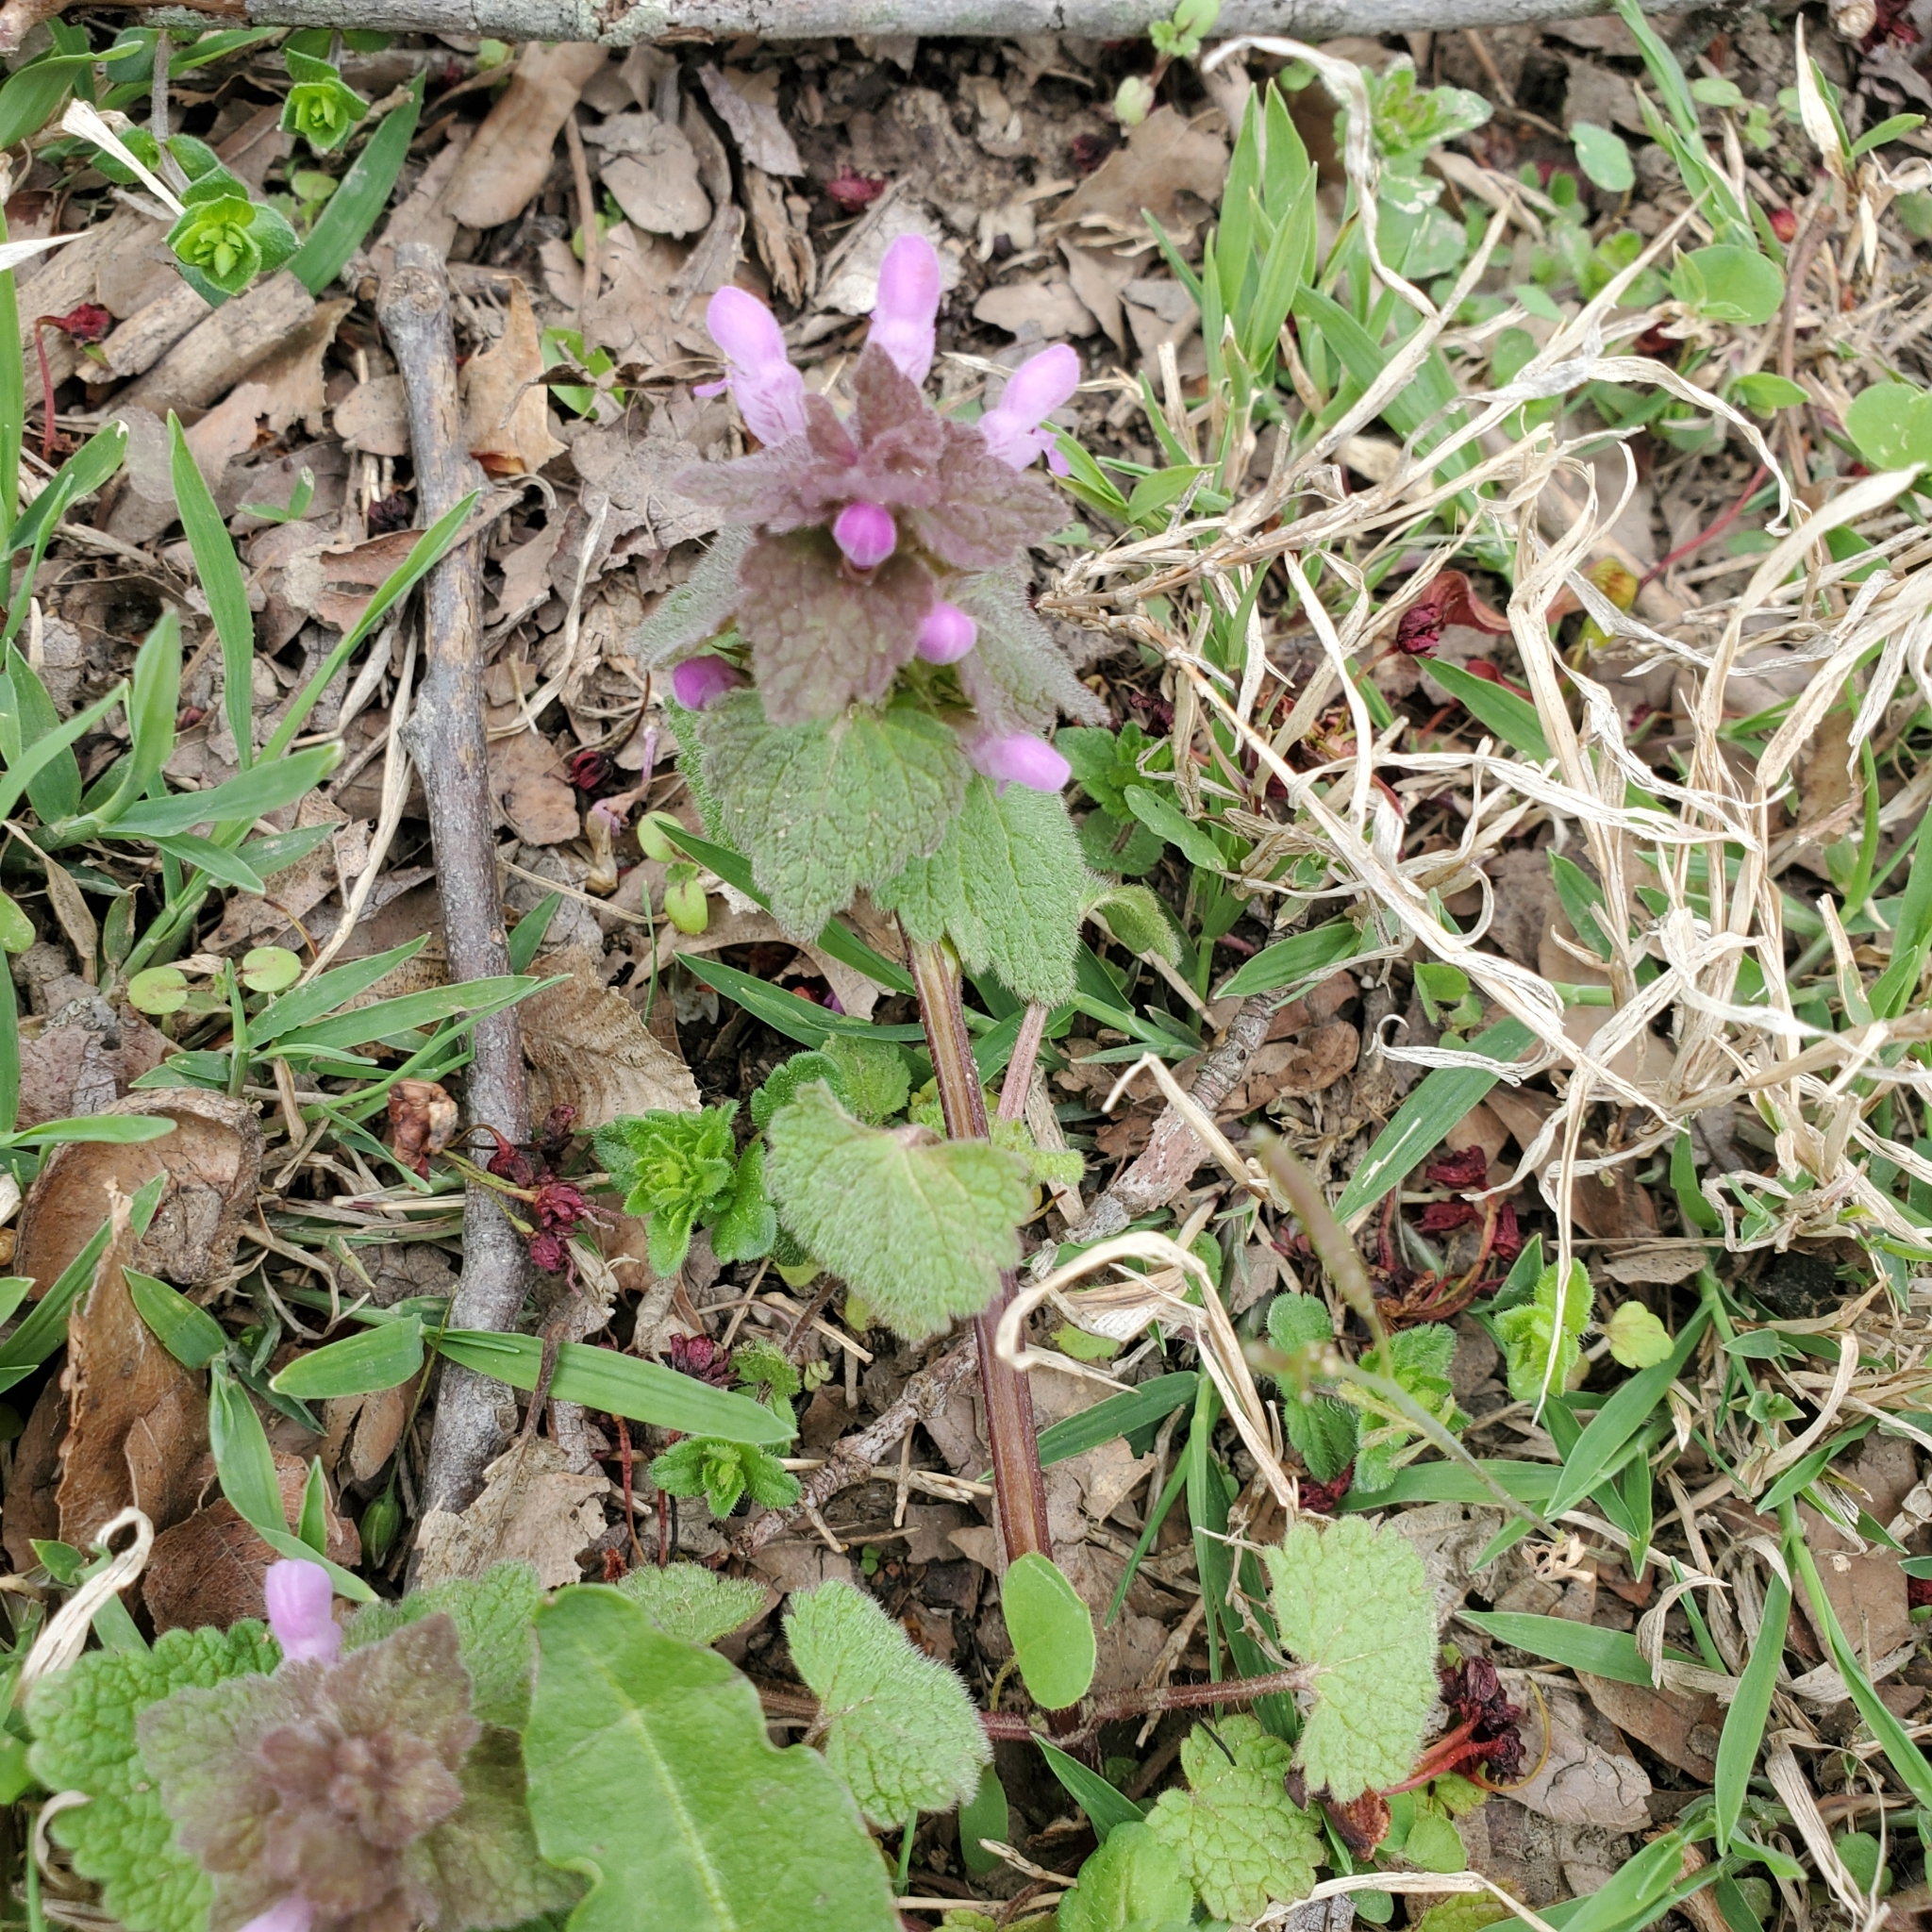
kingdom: Plantae
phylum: Tracheophyta
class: Magnoliopsida
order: Lamiales
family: Lamiaceae
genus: Lamium
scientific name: Lamium purpureum
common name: Red dead-nettle
